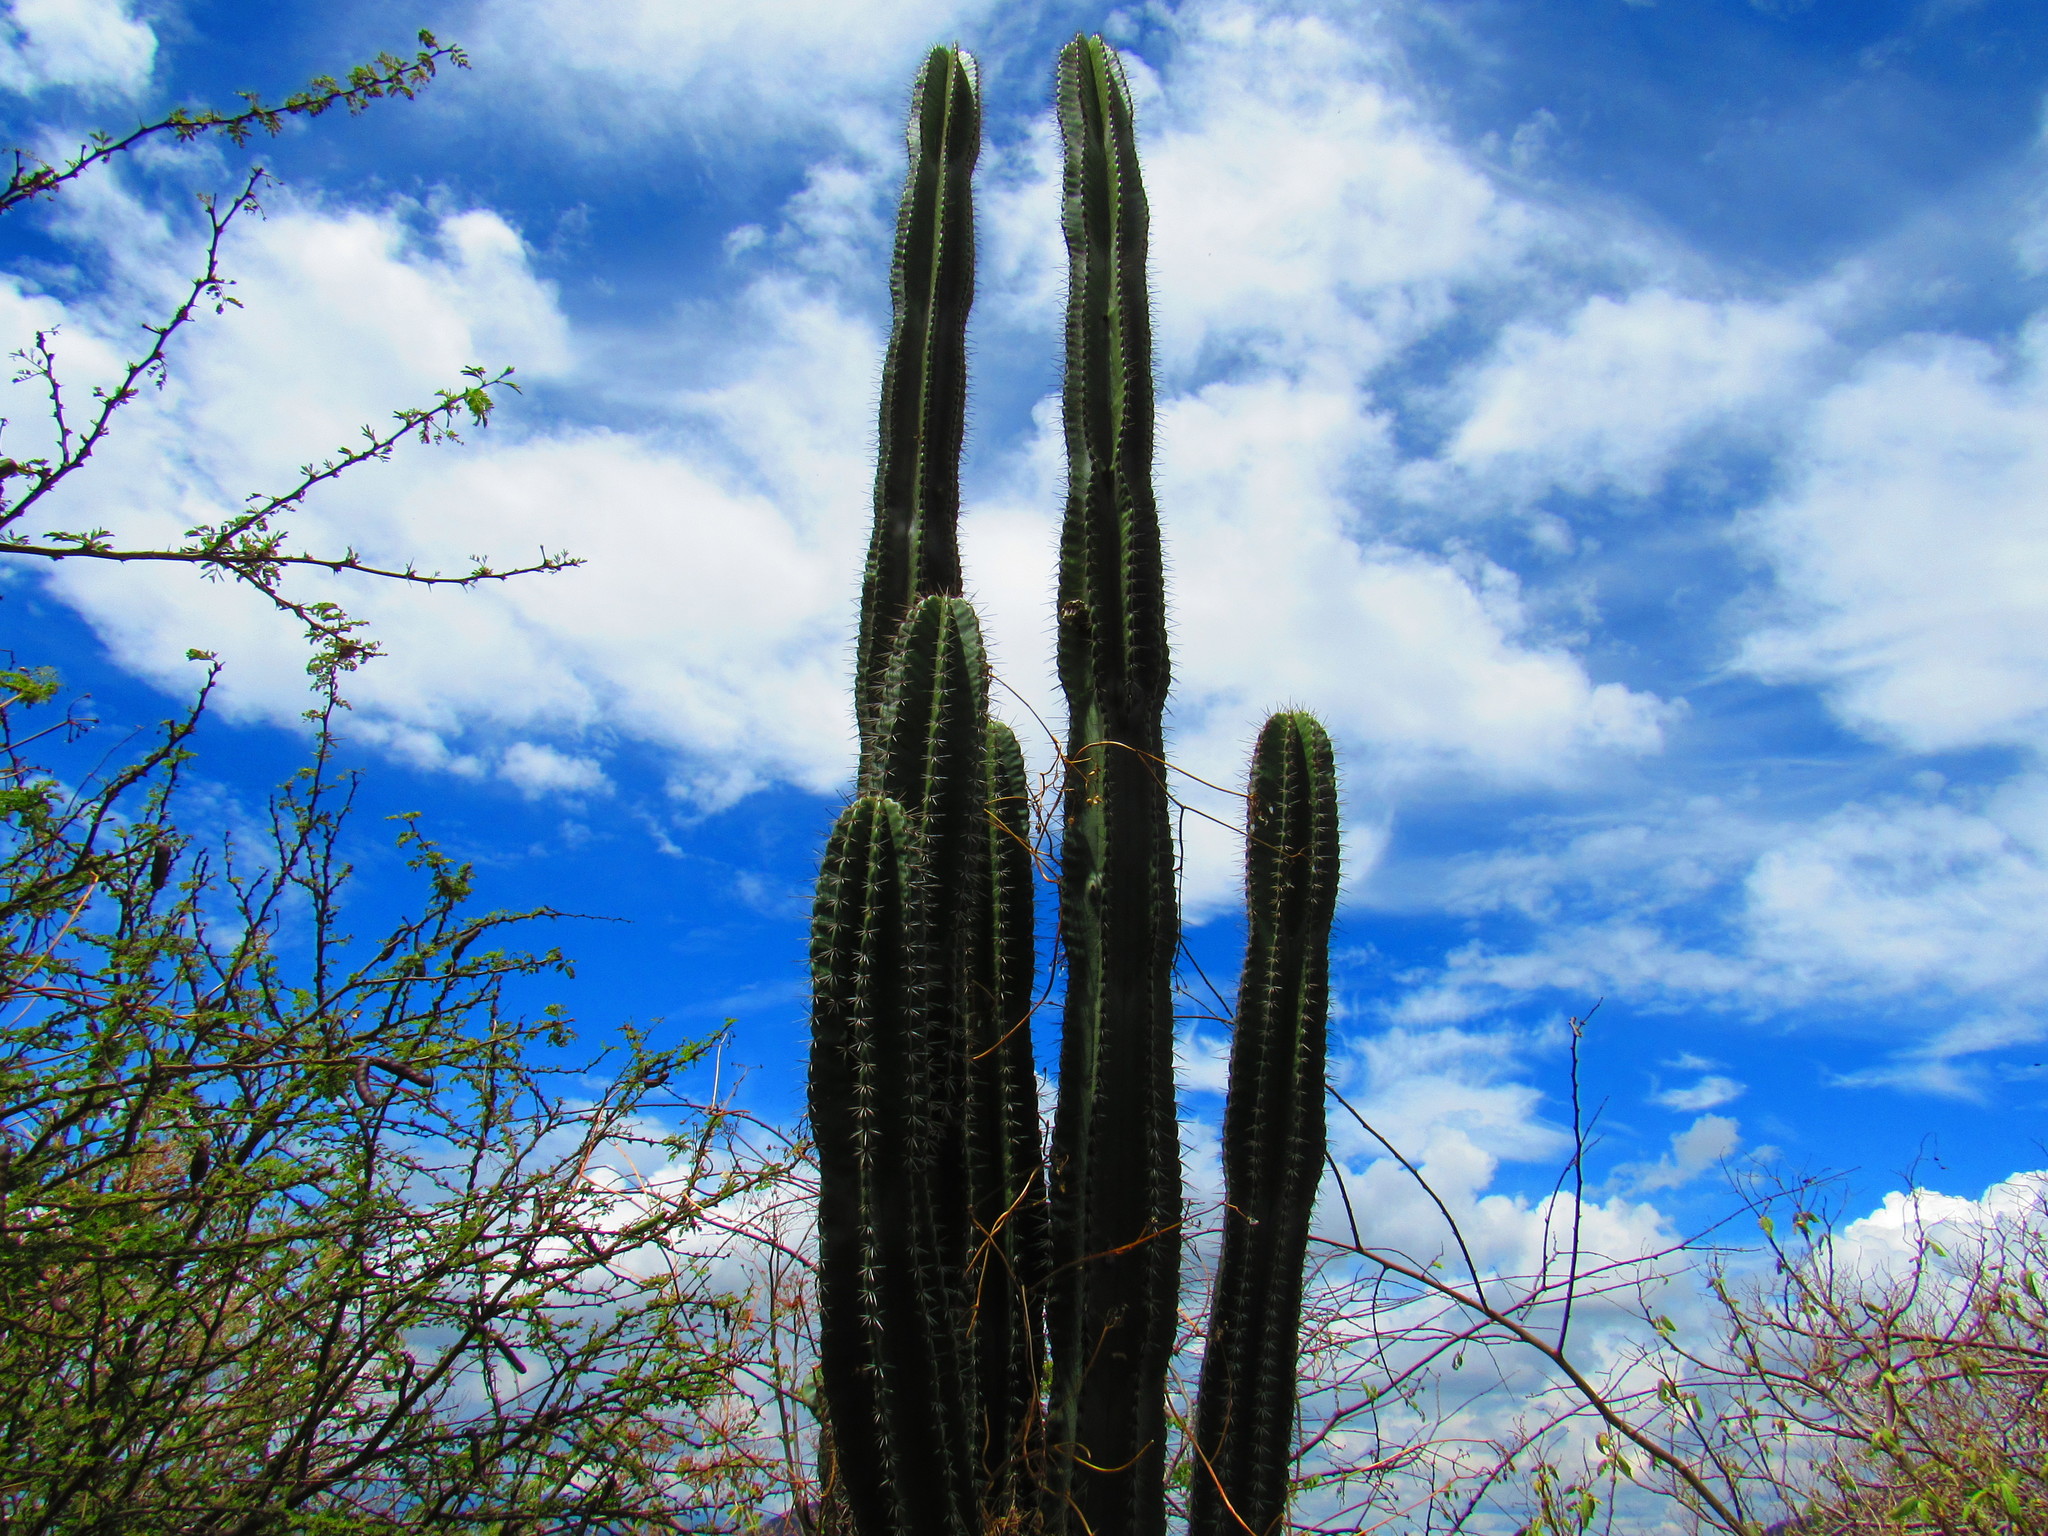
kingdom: Plantae
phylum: Tracheophyta
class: Magnoliopsida
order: Caryophyllales
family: Cactaceae
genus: Stenocereus
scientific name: Stenocereus queretaroensis
